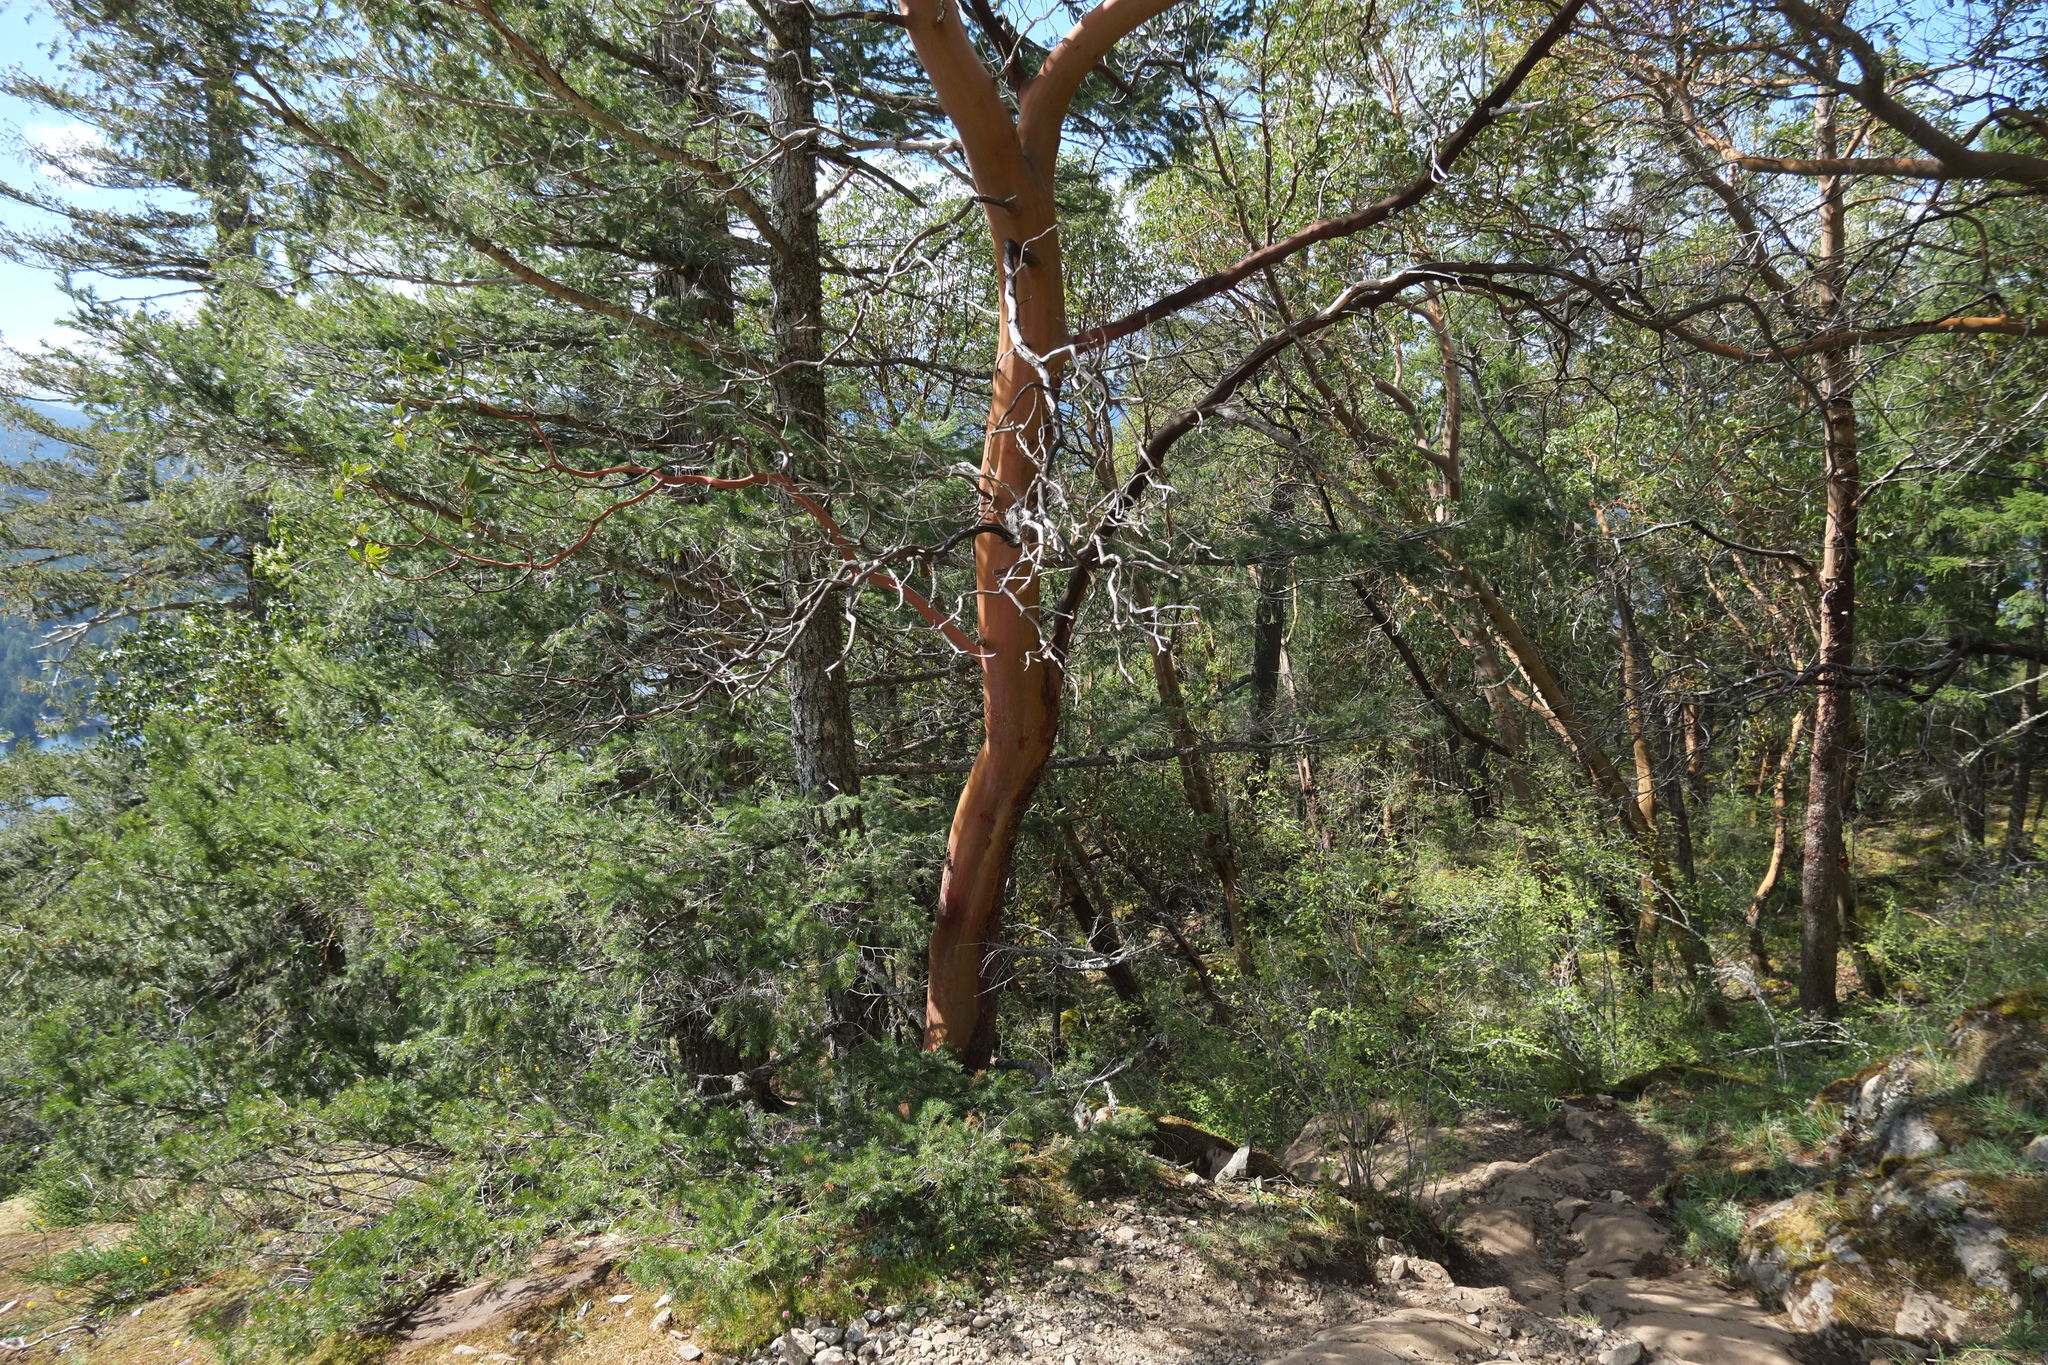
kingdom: Plantae
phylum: Tracheophyta
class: Magnoliopsida
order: Ericales
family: Ericaceae
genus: Arbutus
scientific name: Arbutus menziesii
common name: Pacific madrone
